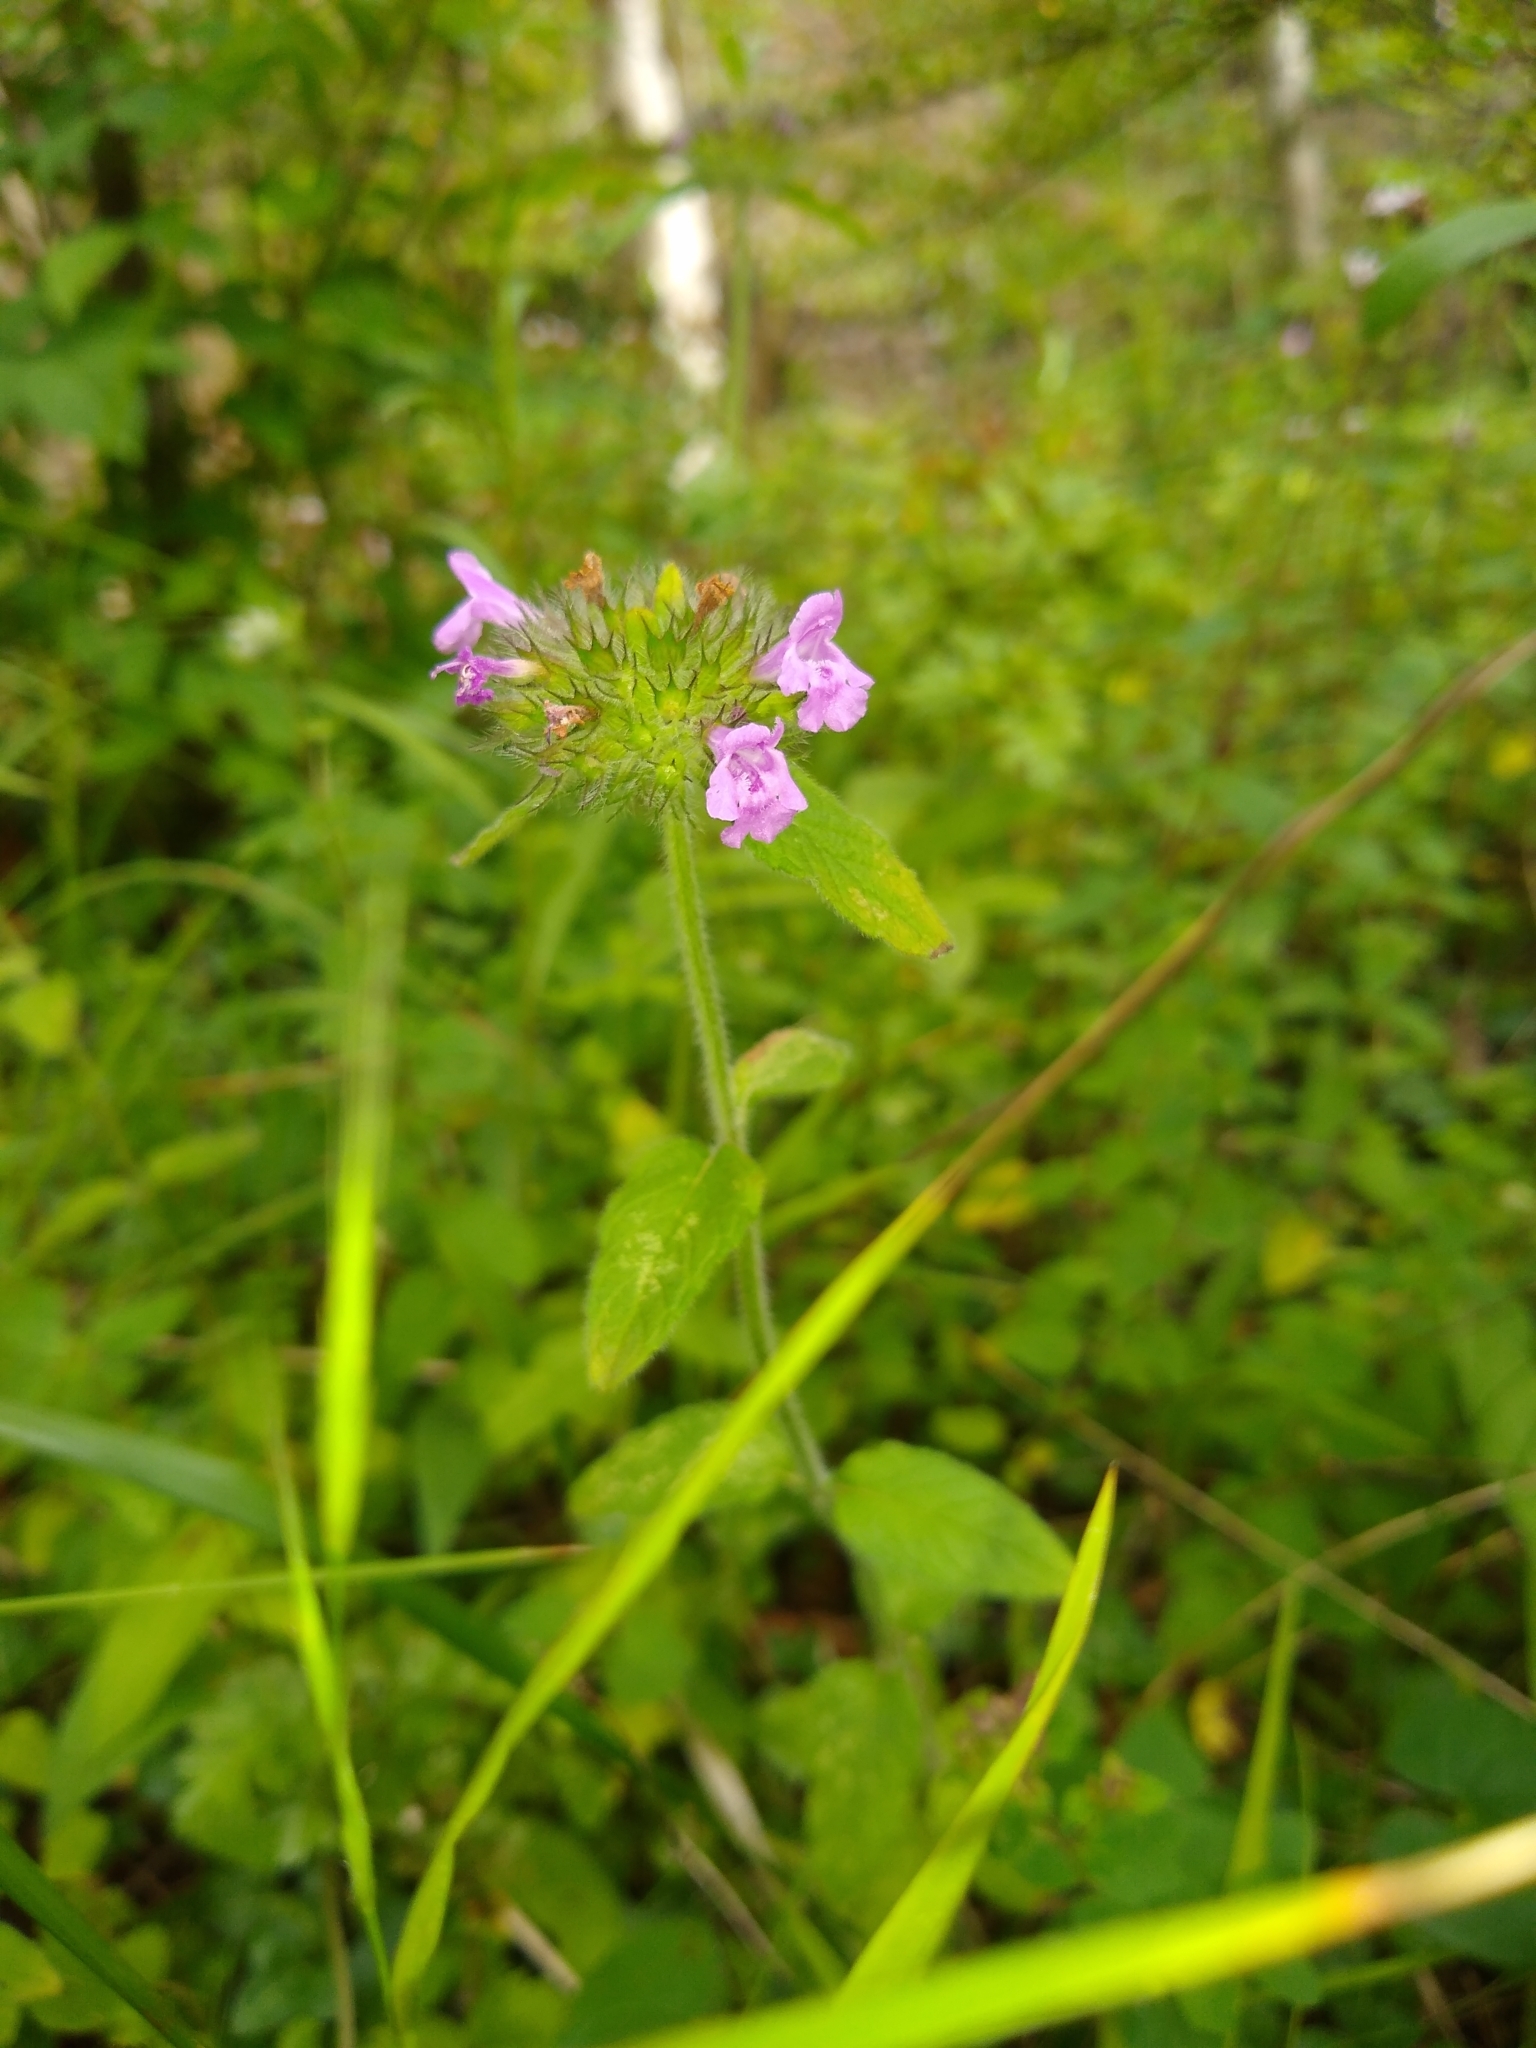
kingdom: Plantae
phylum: Tracheophyta
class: Magnoliopsida
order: Lamiales
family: Lamiaceae
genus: Clinopodium
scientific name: Clinopodium vulgare
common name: Wild basil
